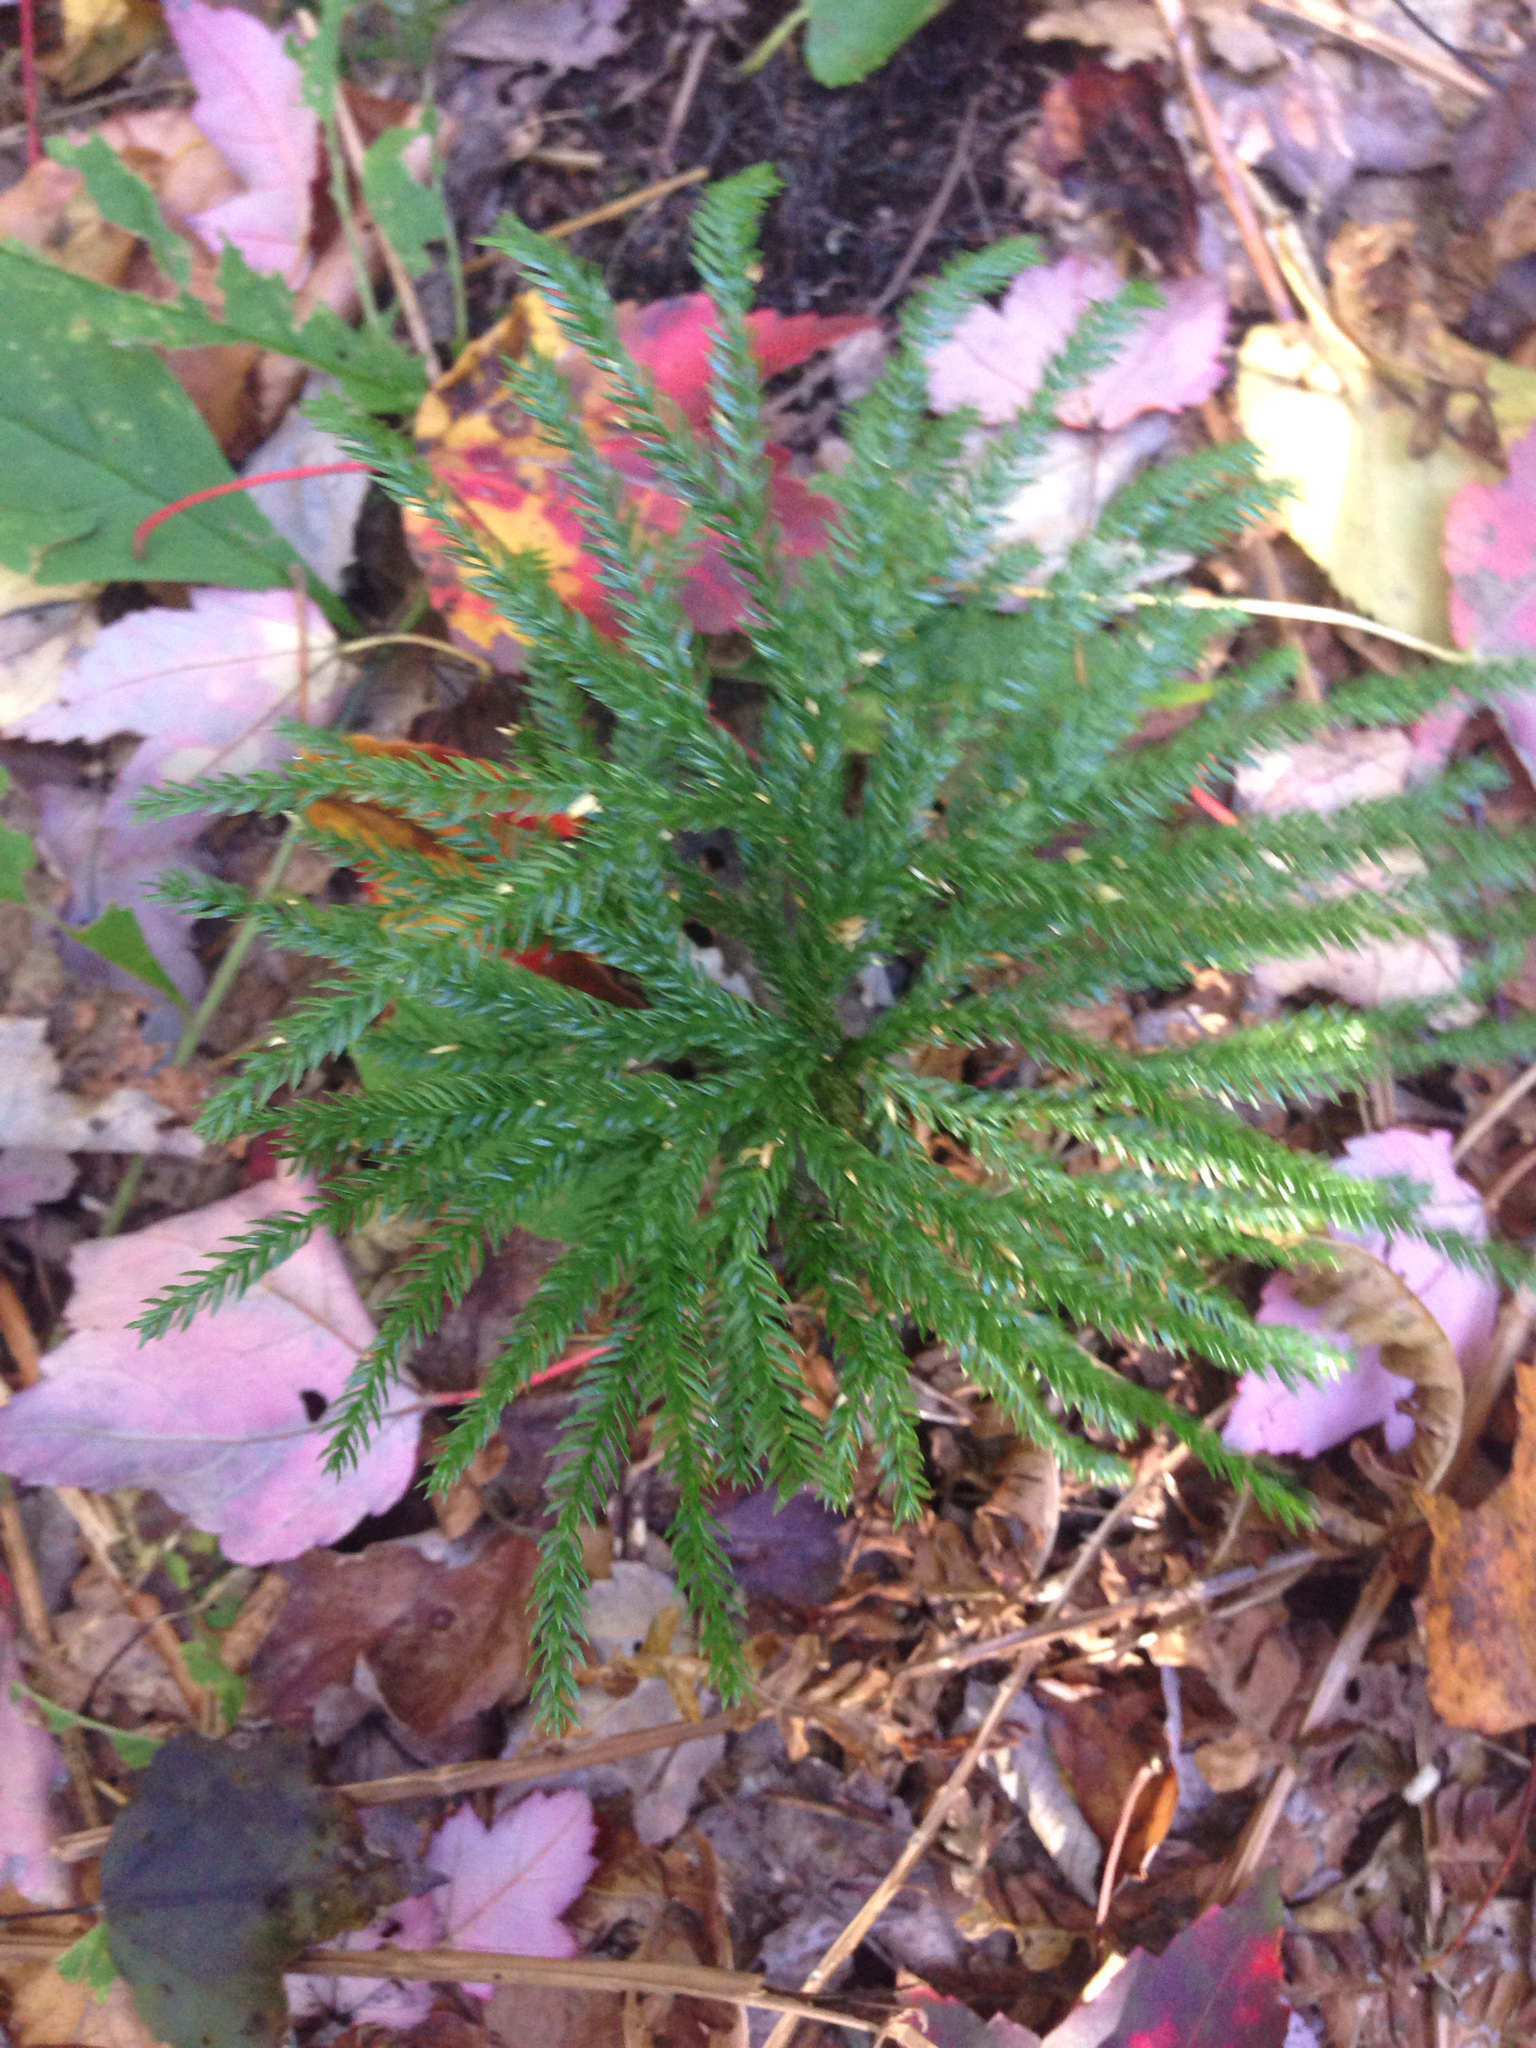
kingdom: Plantae
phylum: Tracheophyta
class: Lycopodiopsida
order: Lycopodiales
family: Lycopodiaceae
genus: Dendrolycopodium
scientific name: Dendrolycopodium obscurum
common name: Common ground-pine
